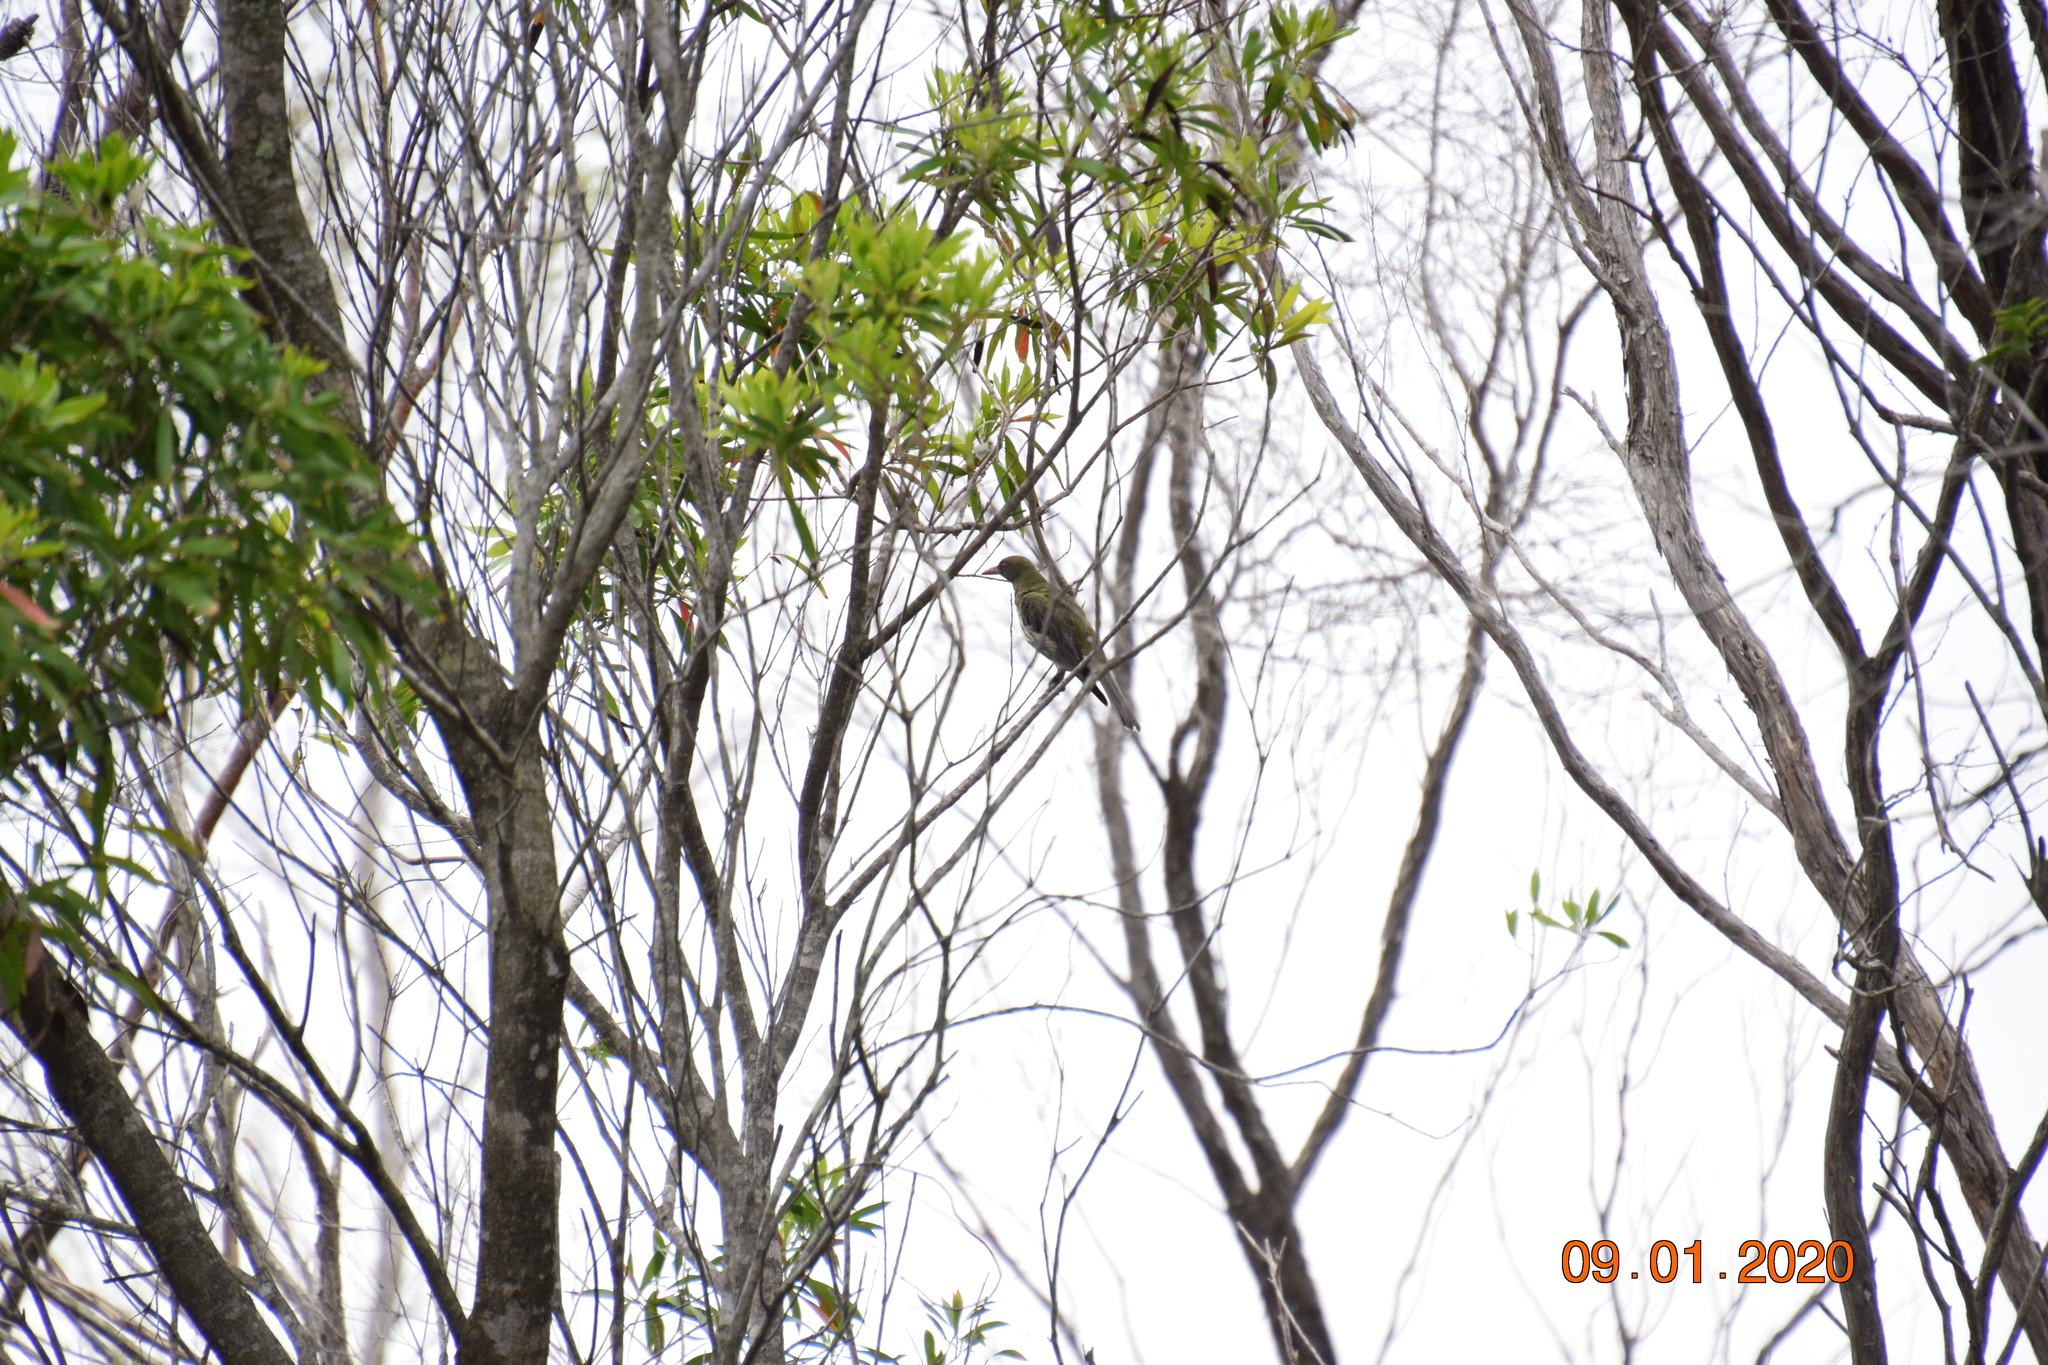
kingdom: Animalia
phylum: Chordata
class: Aves
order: Passeriformes
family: Oriolidae
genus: Oriolus
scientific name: Oriolus sagittatus
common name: Olive-backed oriole
